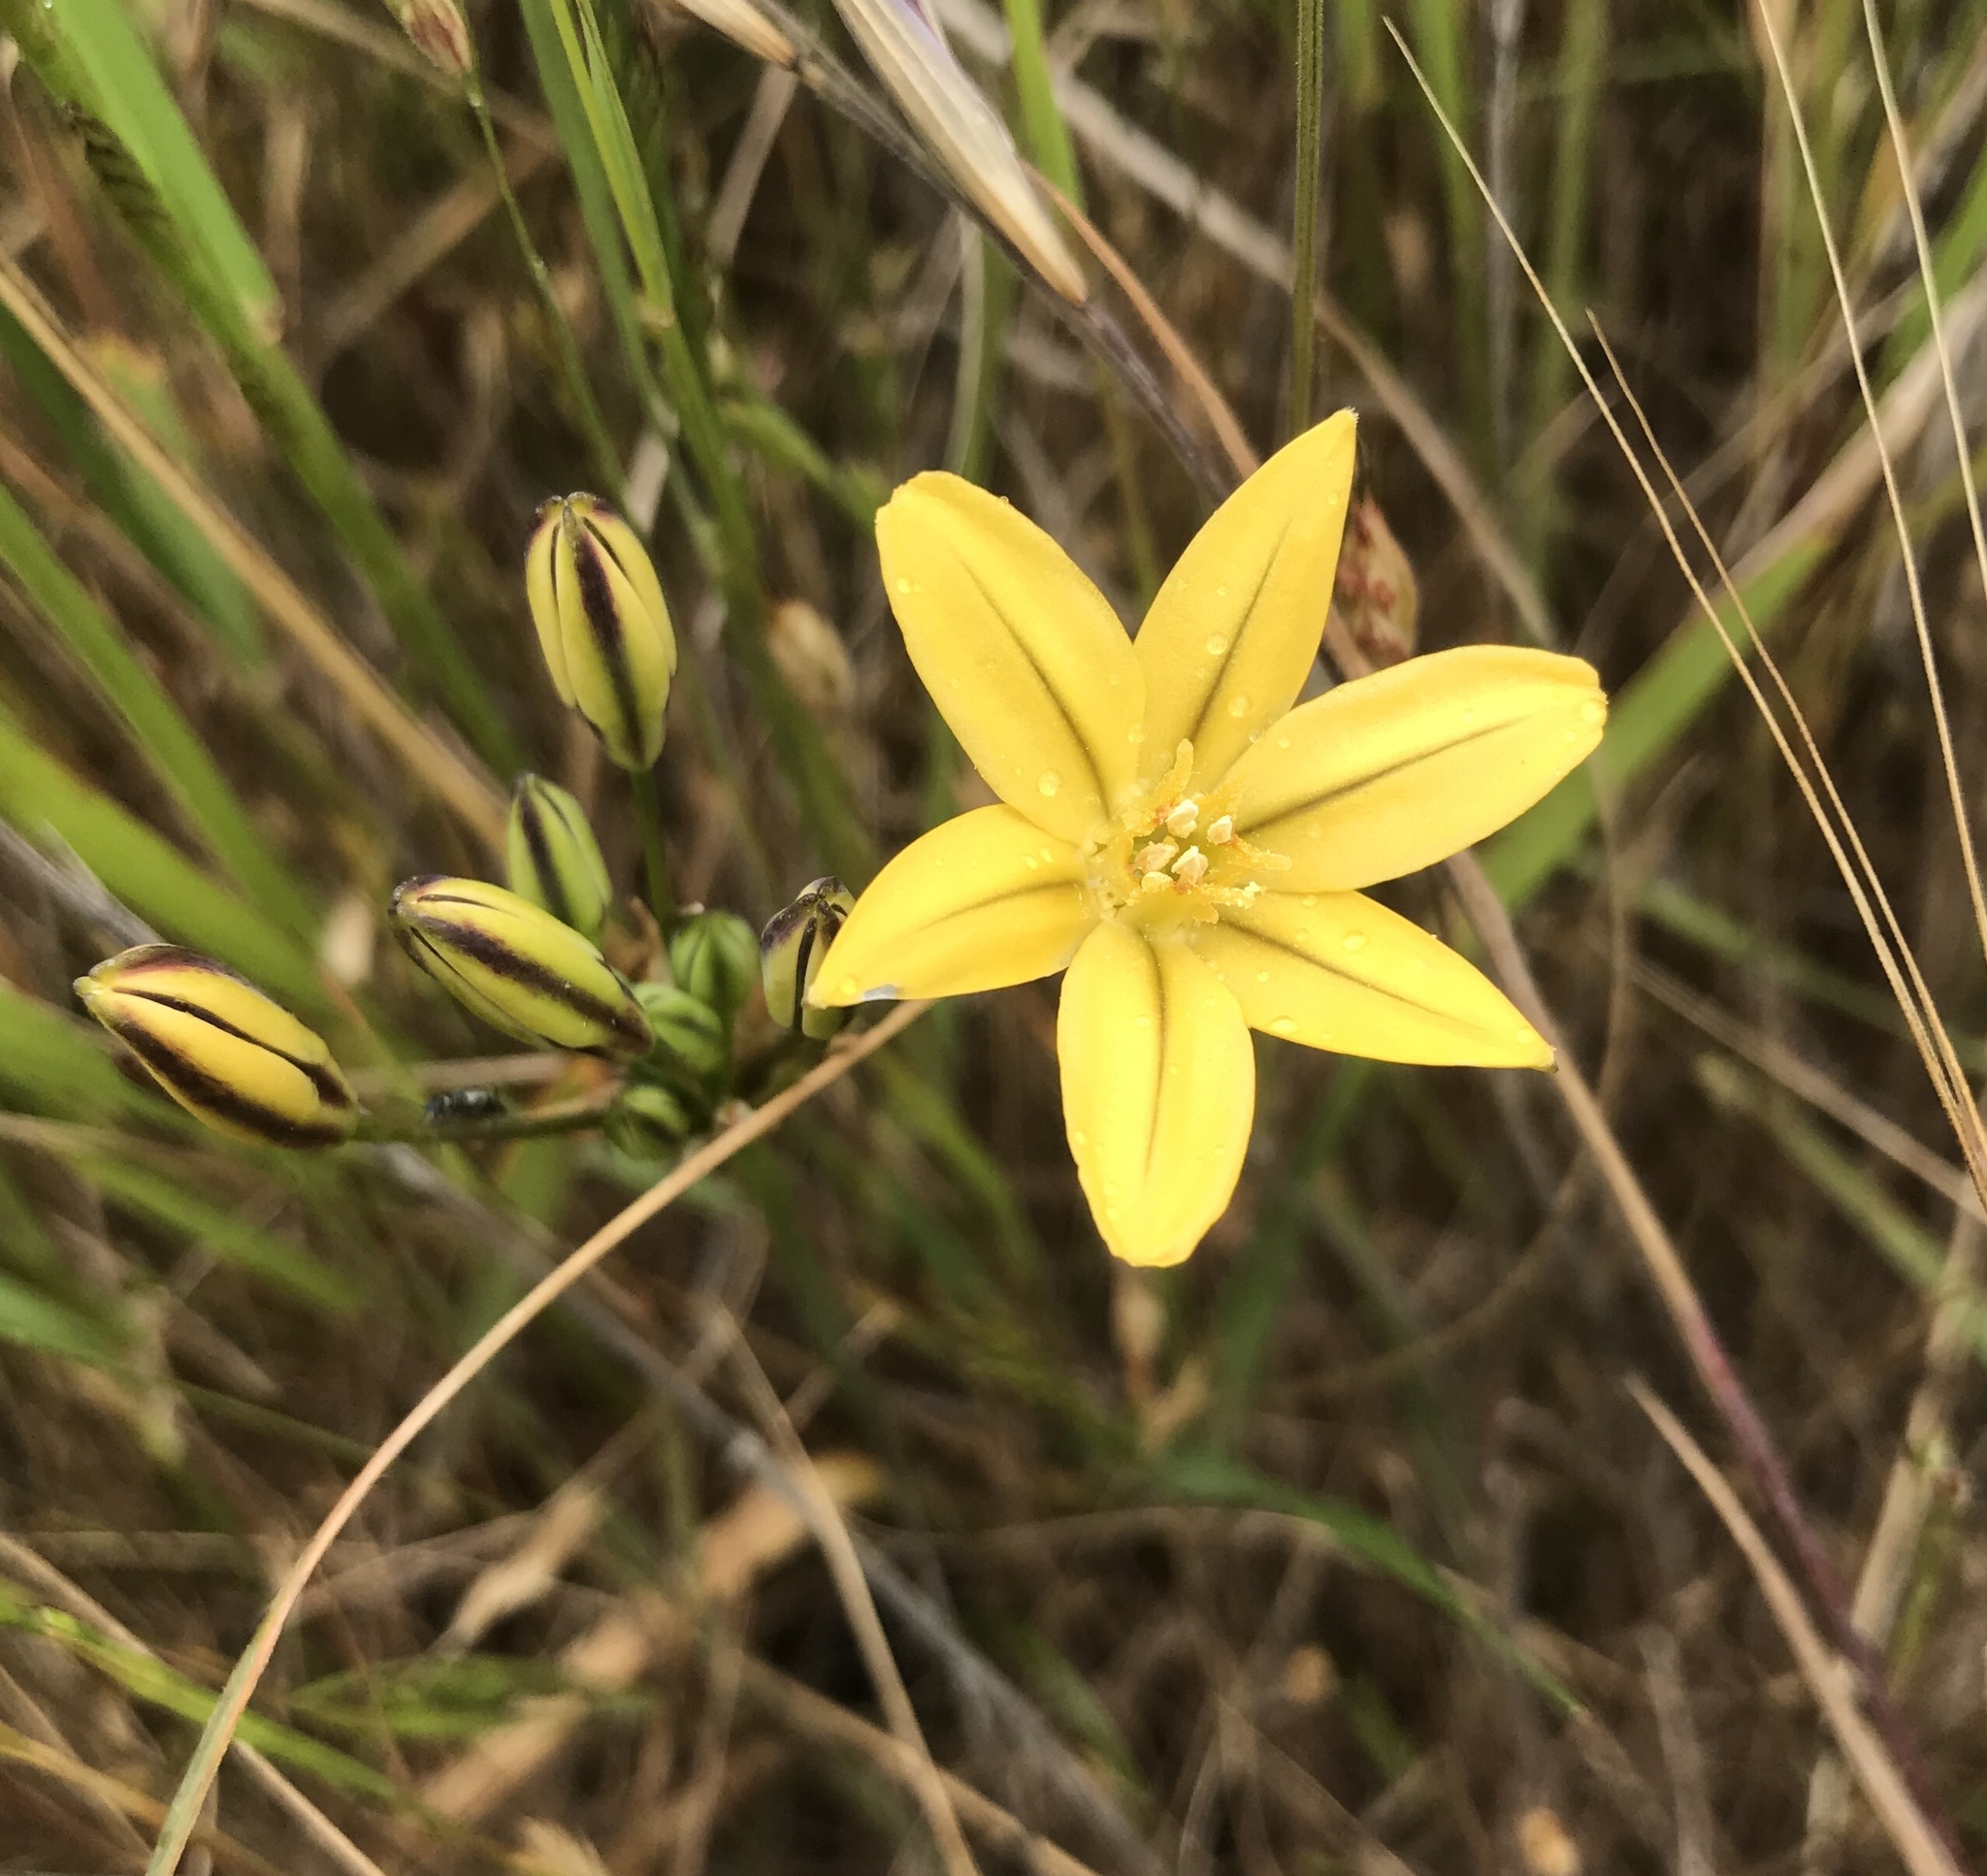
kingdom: Plantae
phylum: Tracheophyta
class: Liliopsida
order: Asparagales
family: Asparagaceae
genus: Triteleia
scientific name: Triteleia ixioides
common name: Yellow-brodiaea
